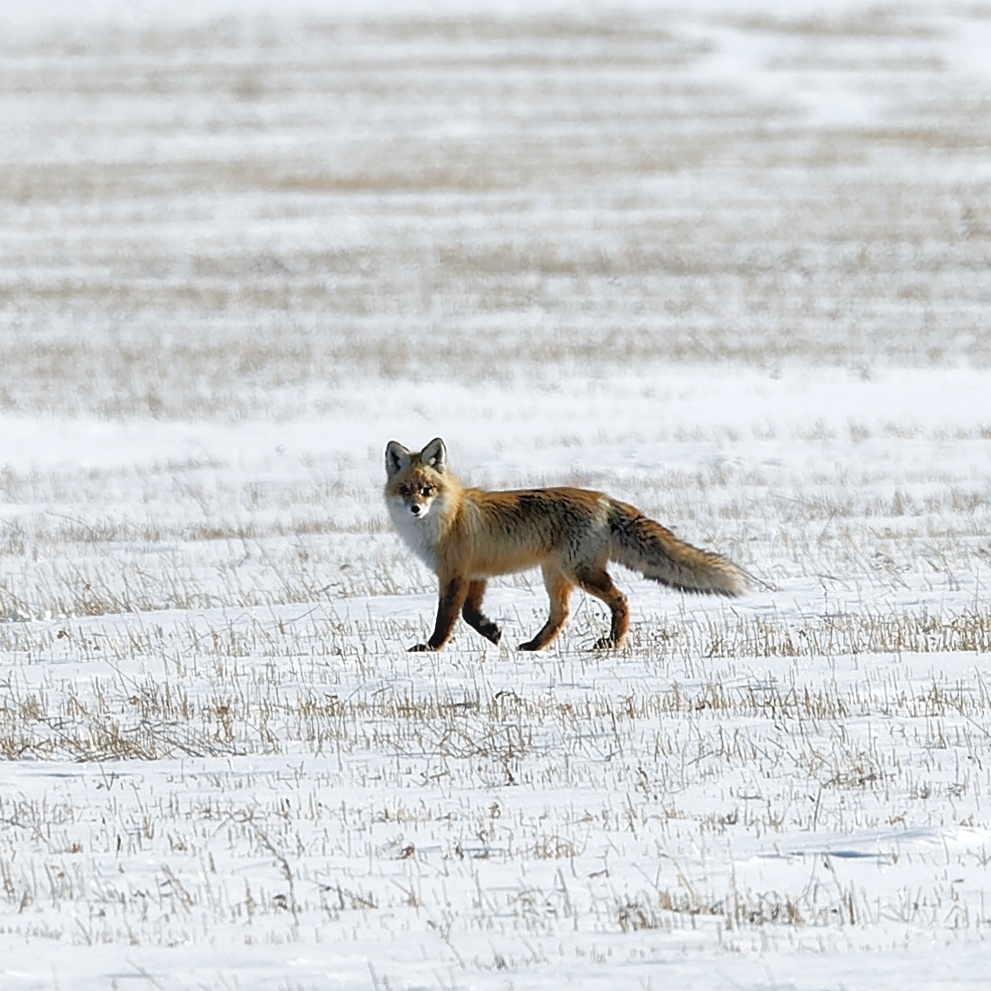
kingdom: Animalia
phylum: Chordata
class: Mammalia
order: Carnivora
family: Canidae
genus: Vulpes
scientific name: Vulpes vulpes
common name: Red fox
